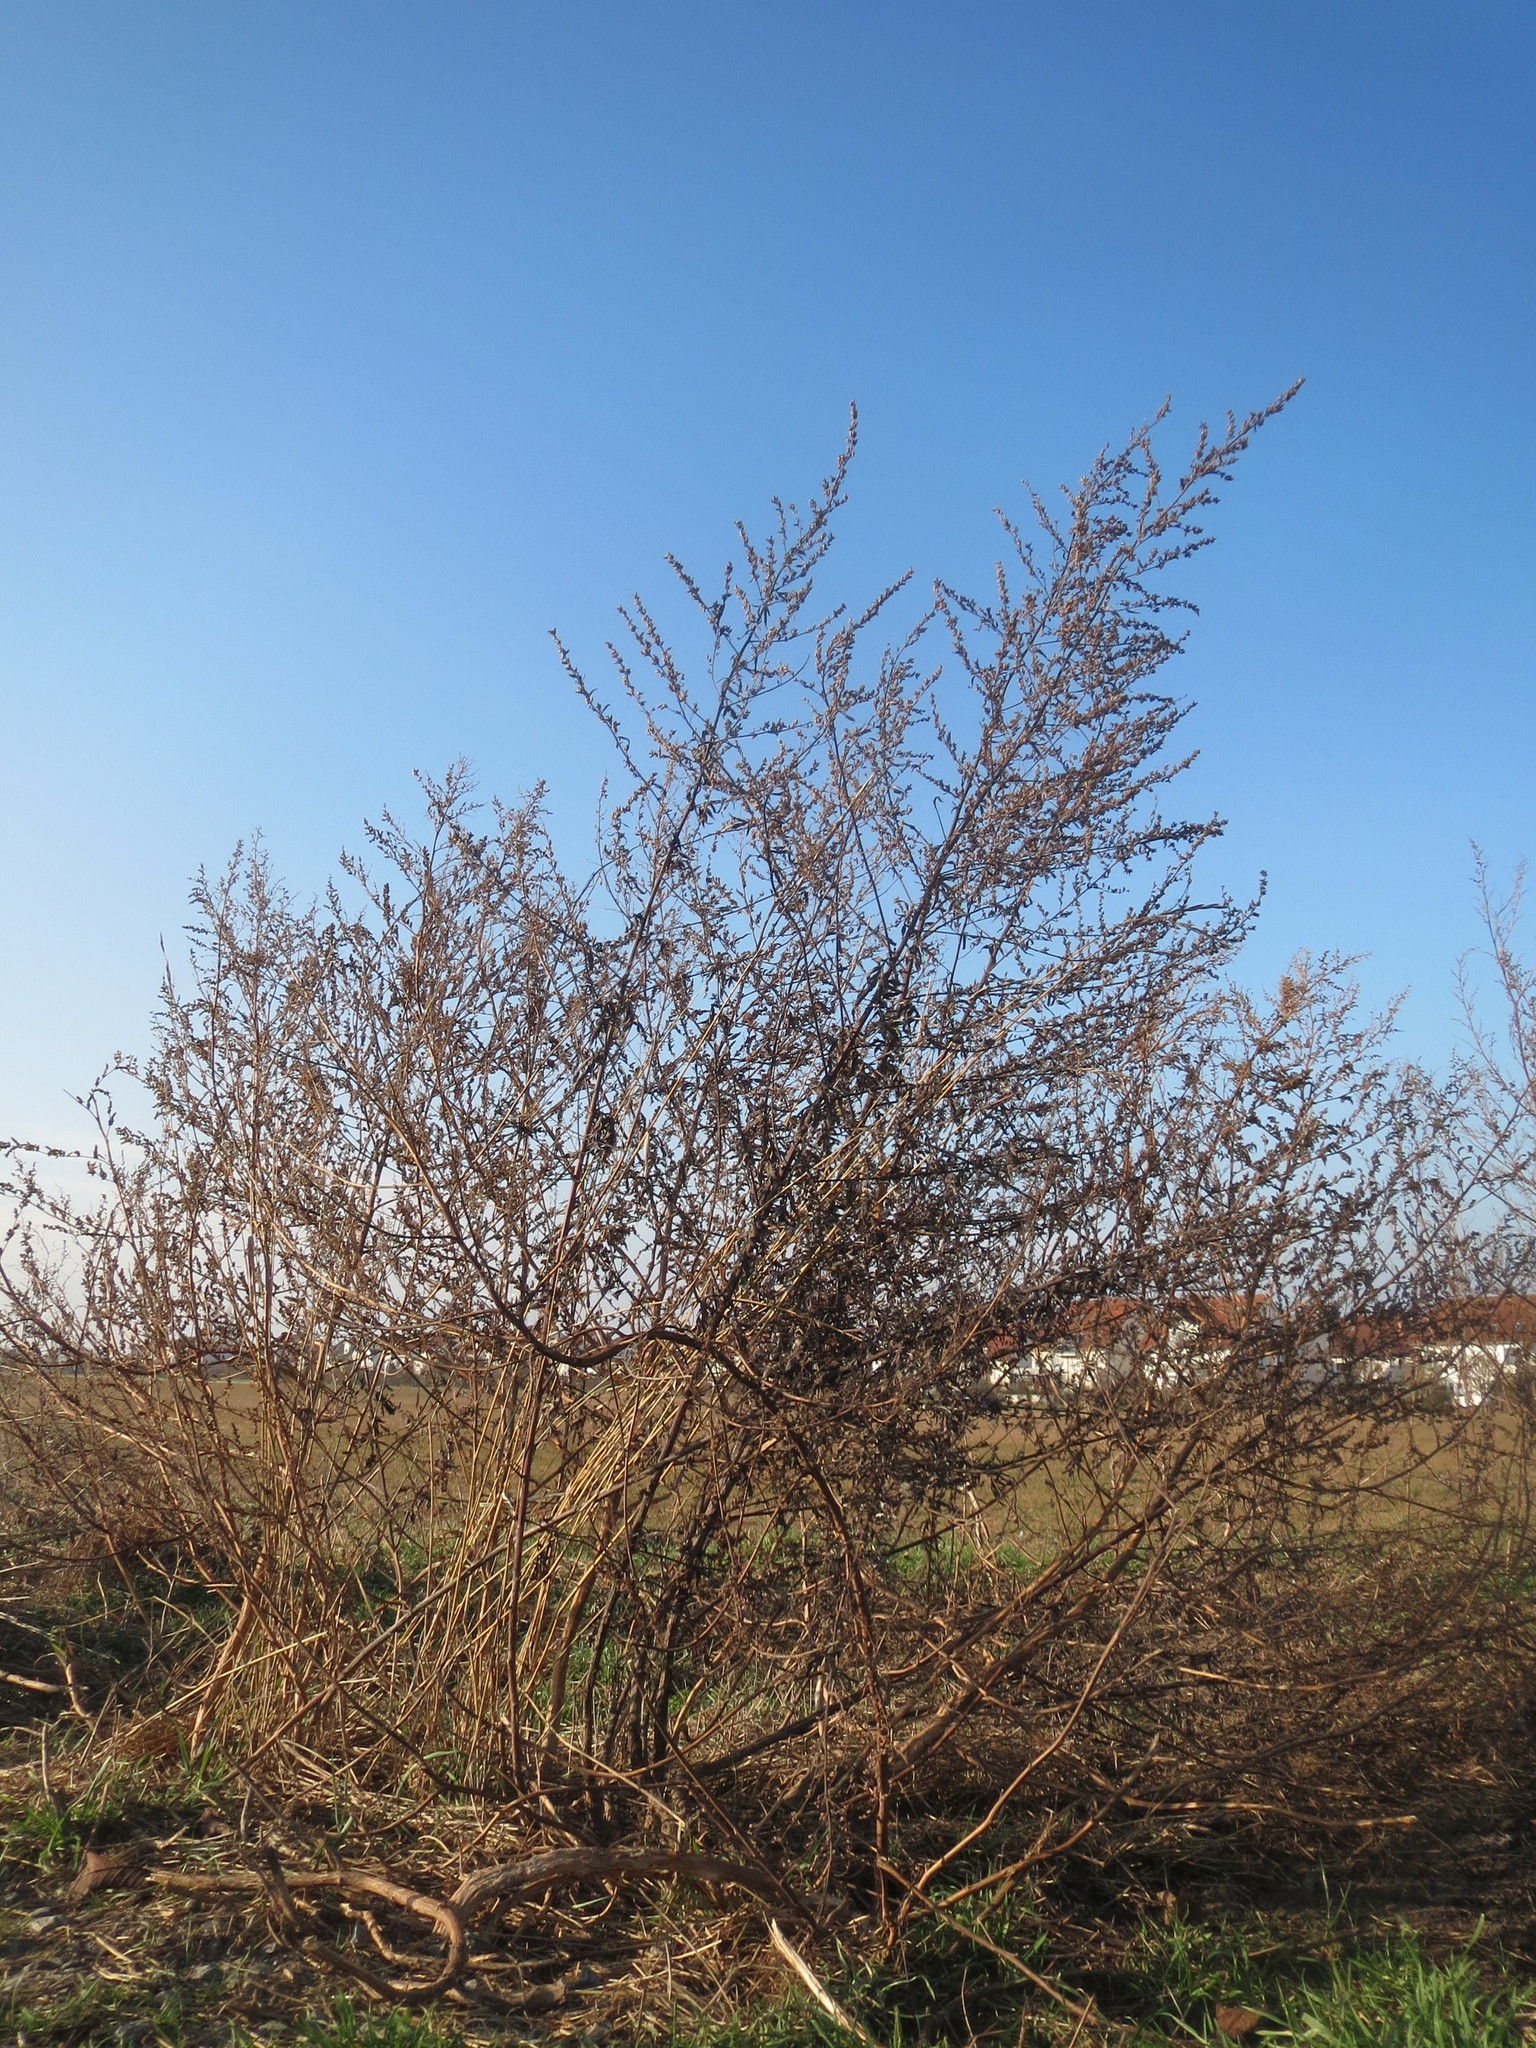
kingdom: Plantae
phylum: Tracheophyta
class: Magnoliopsida
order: Asterales
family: Asteraceae
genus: Artemisia
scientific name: Artemisia vulgaris
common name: Mugwort
